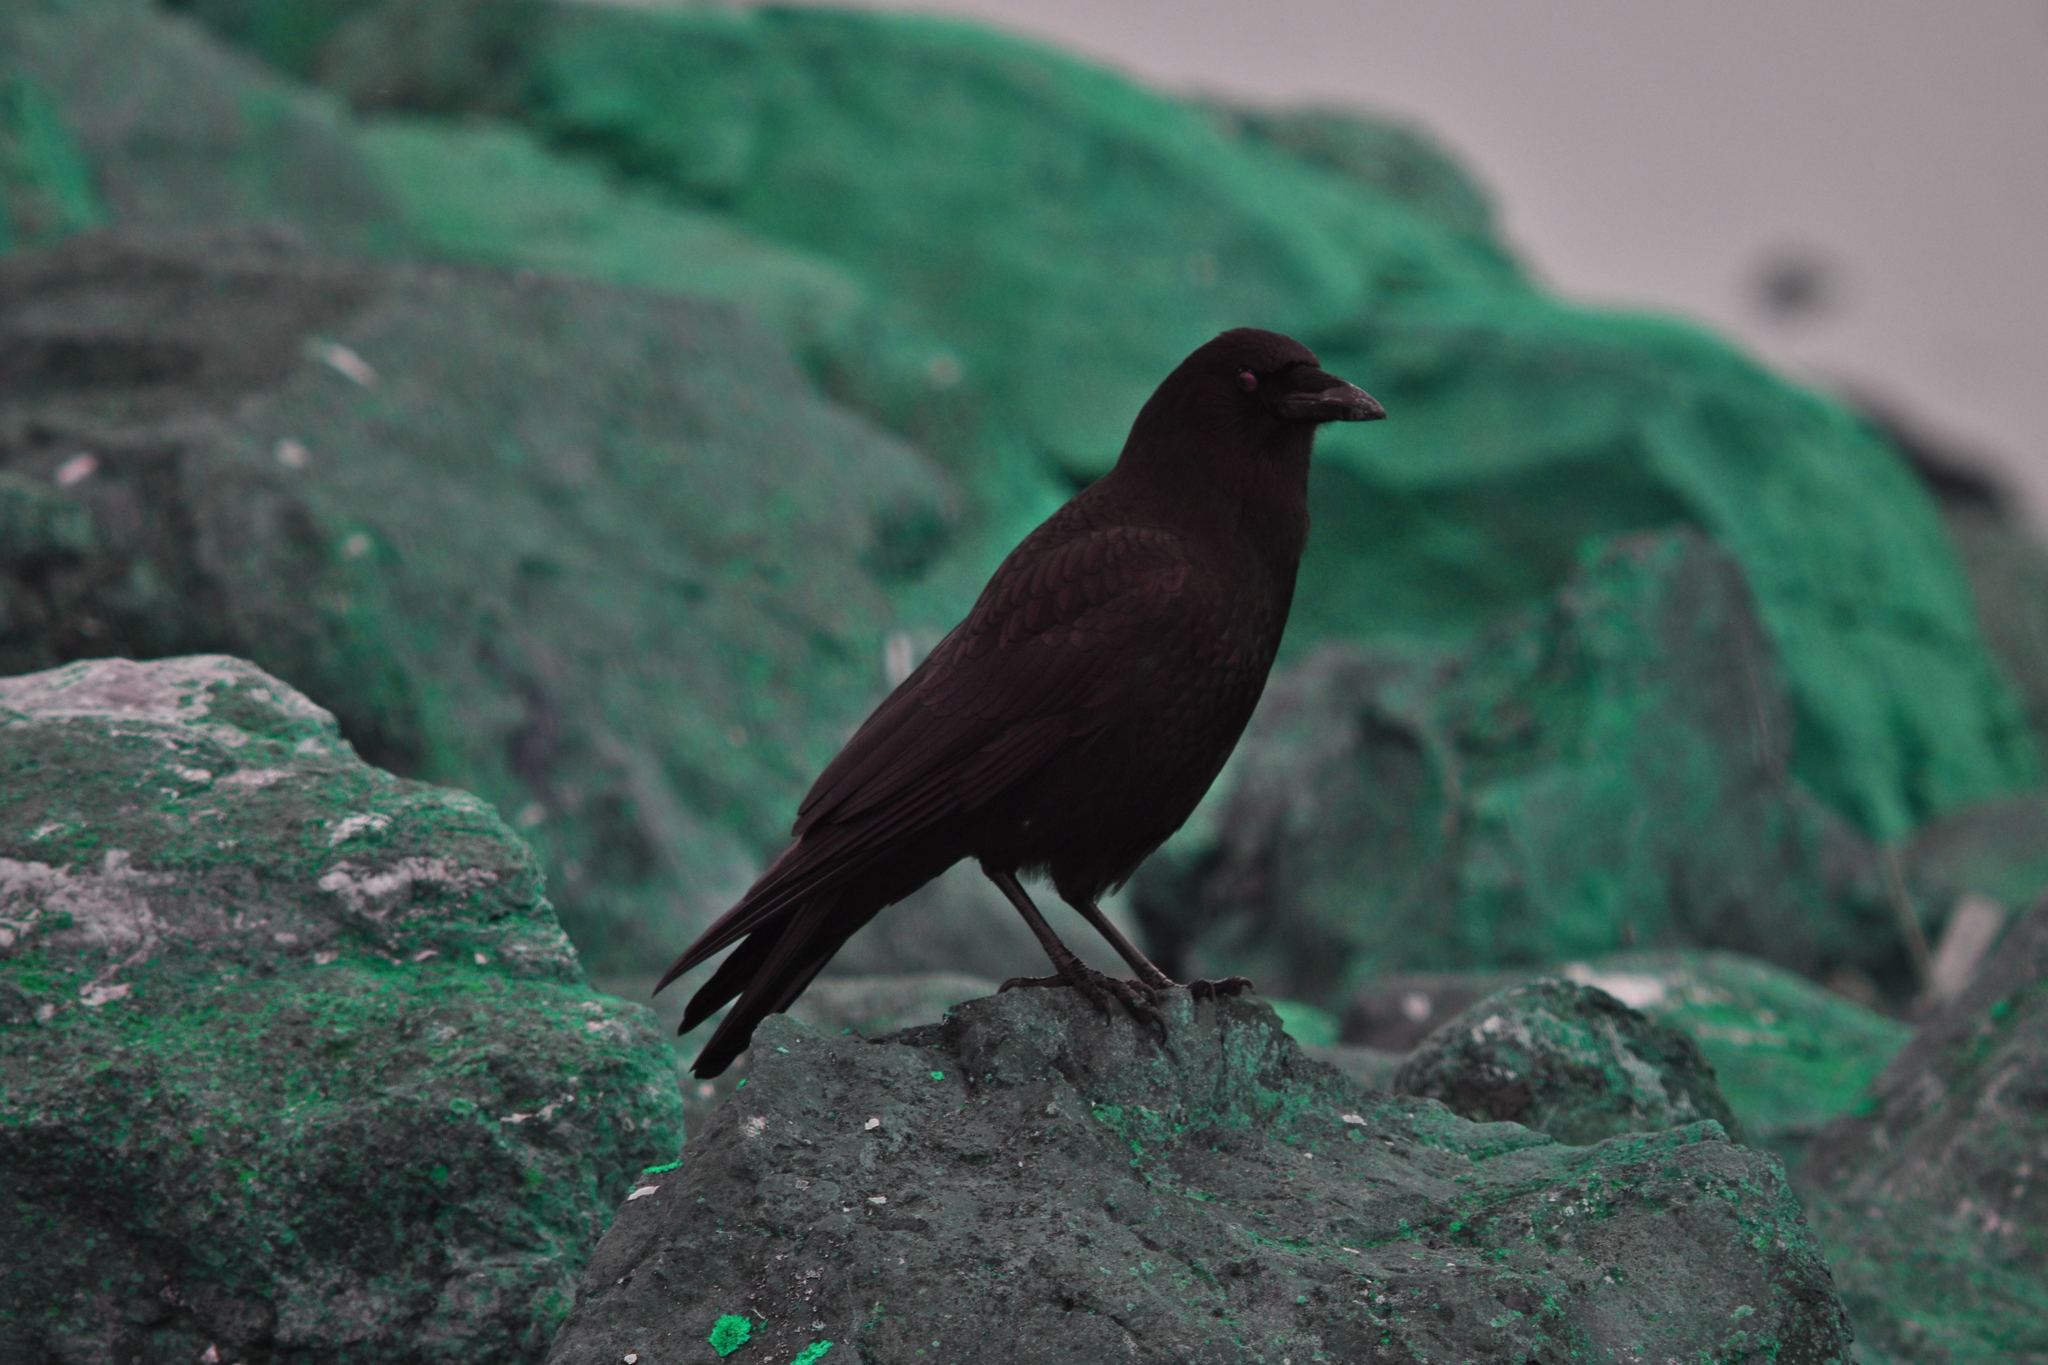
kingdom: Animalia
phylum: Chordata
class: Aves
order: Passeriformes
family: Corvidae
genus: Corvus
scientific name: Corvus brachyrhynchos
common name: American crow
